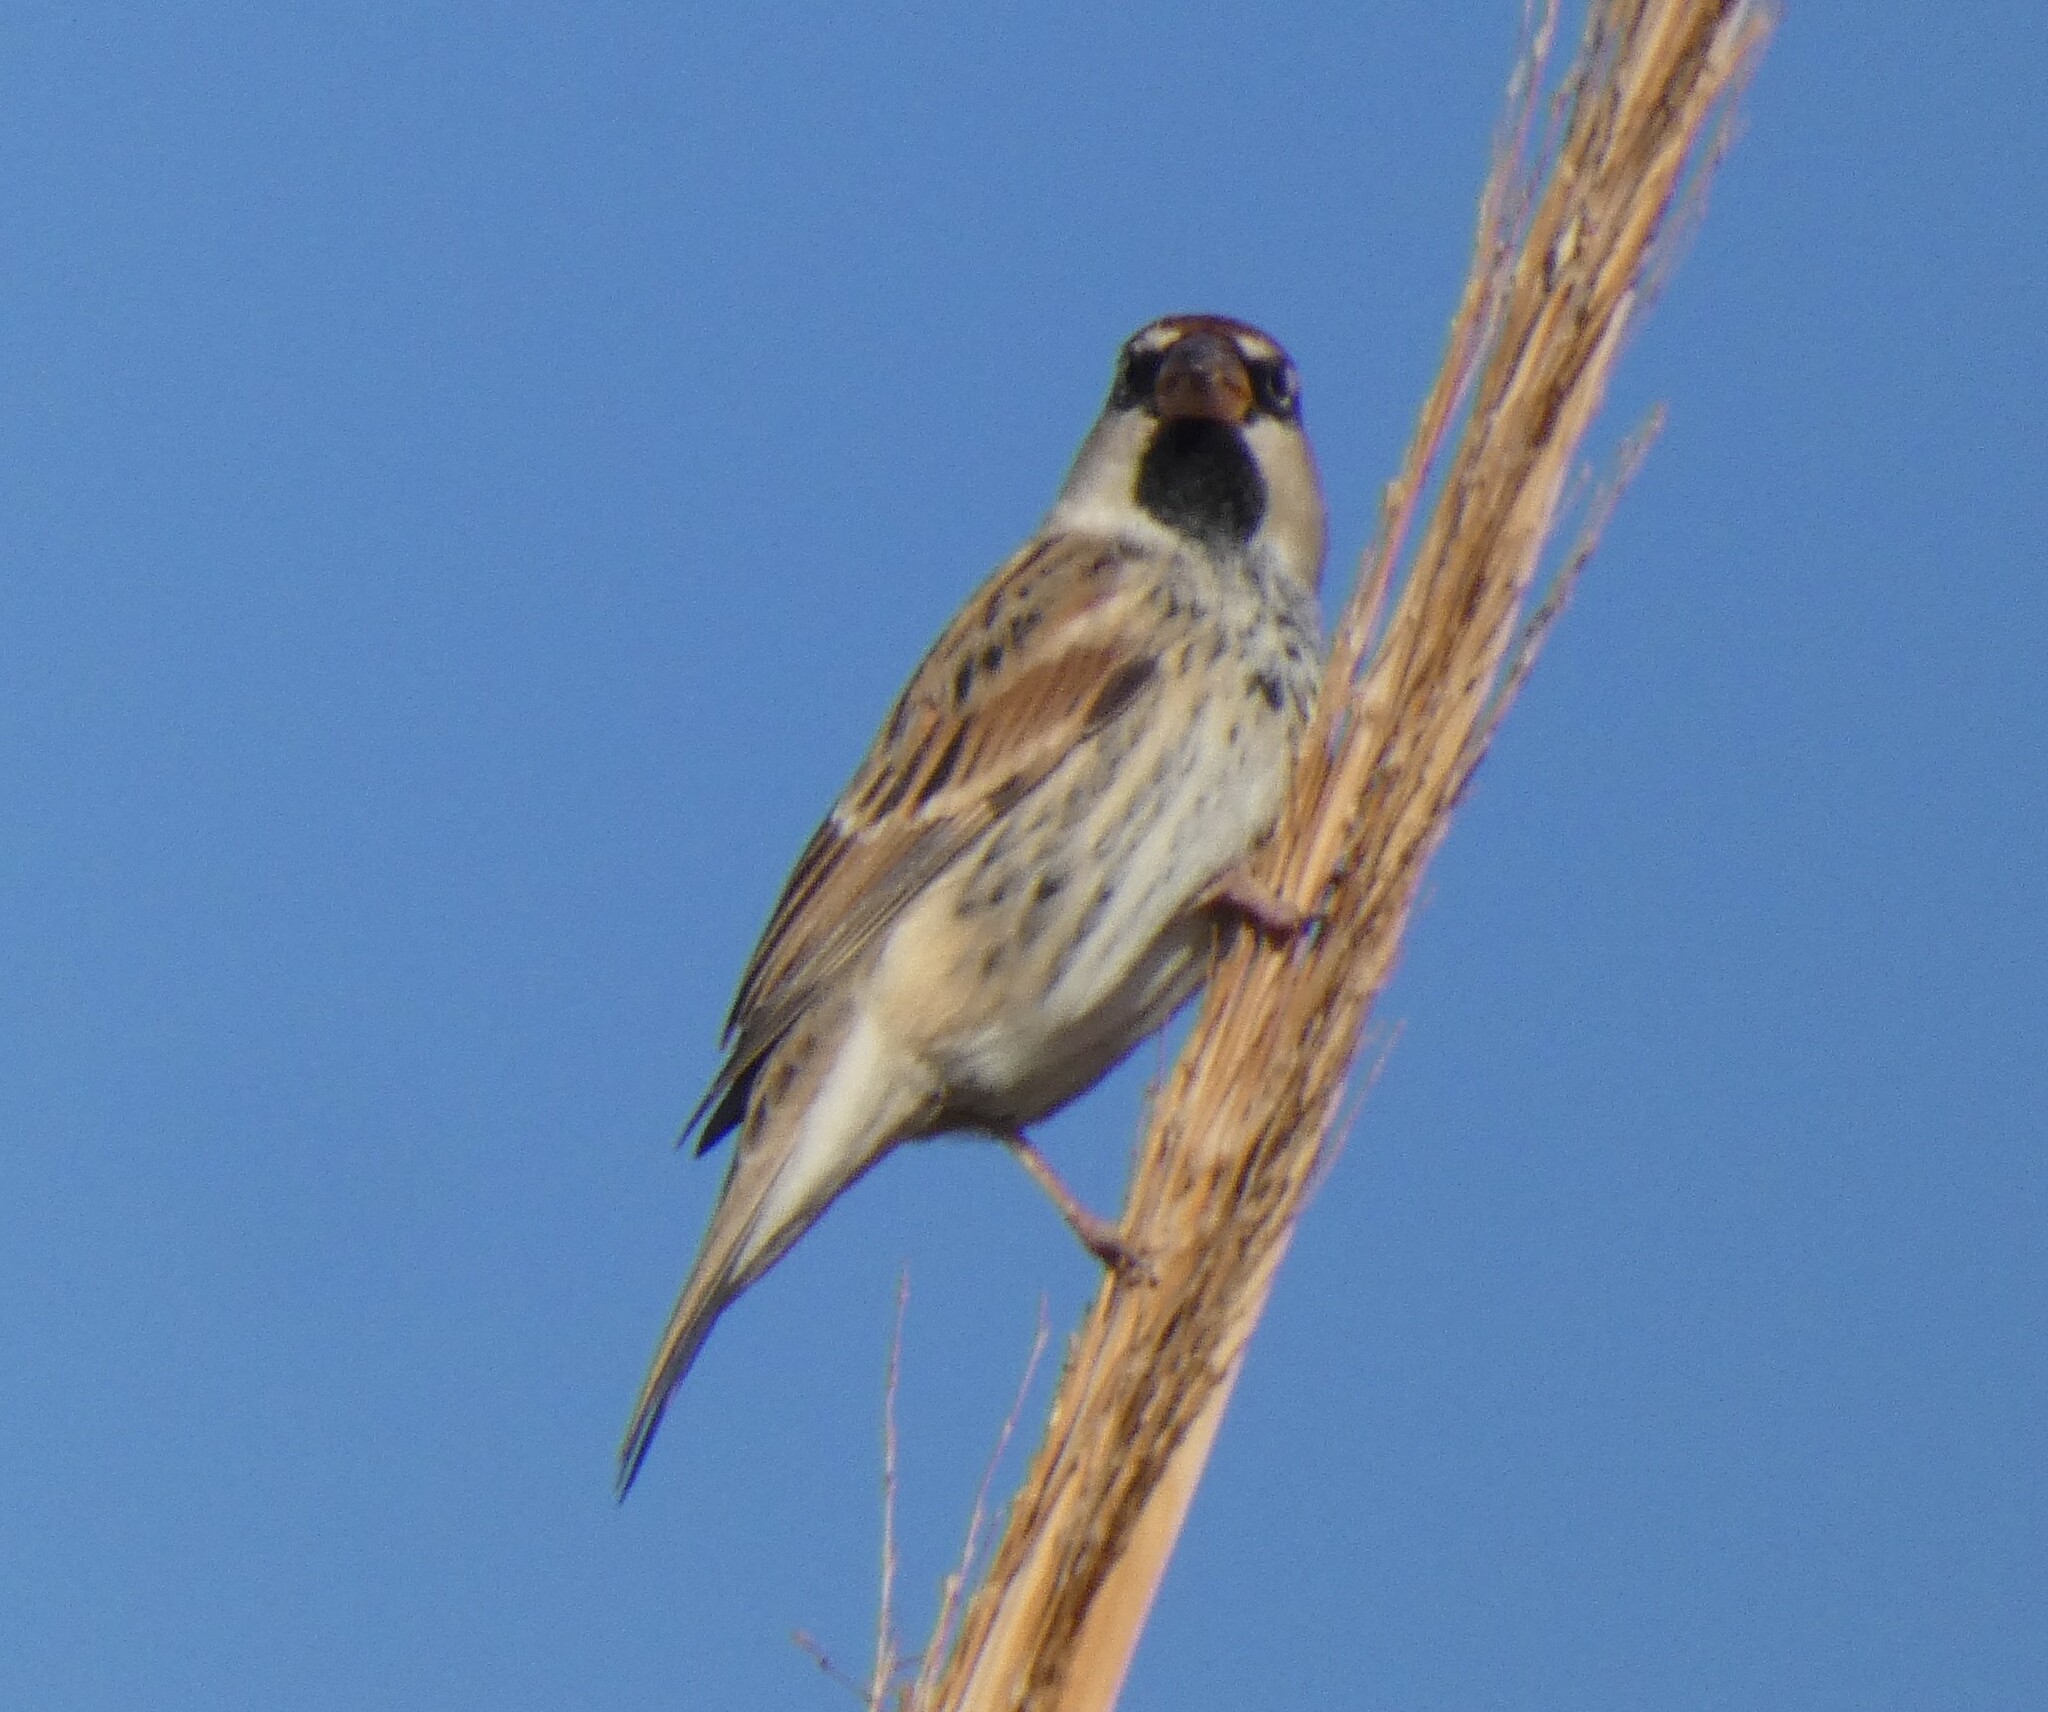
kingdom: Animalia
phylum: Chordata
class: Aves
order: Passeriformes
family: Passeridae
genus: Passer
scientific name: Passer hispaniolensis
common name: Spanish sparrow
